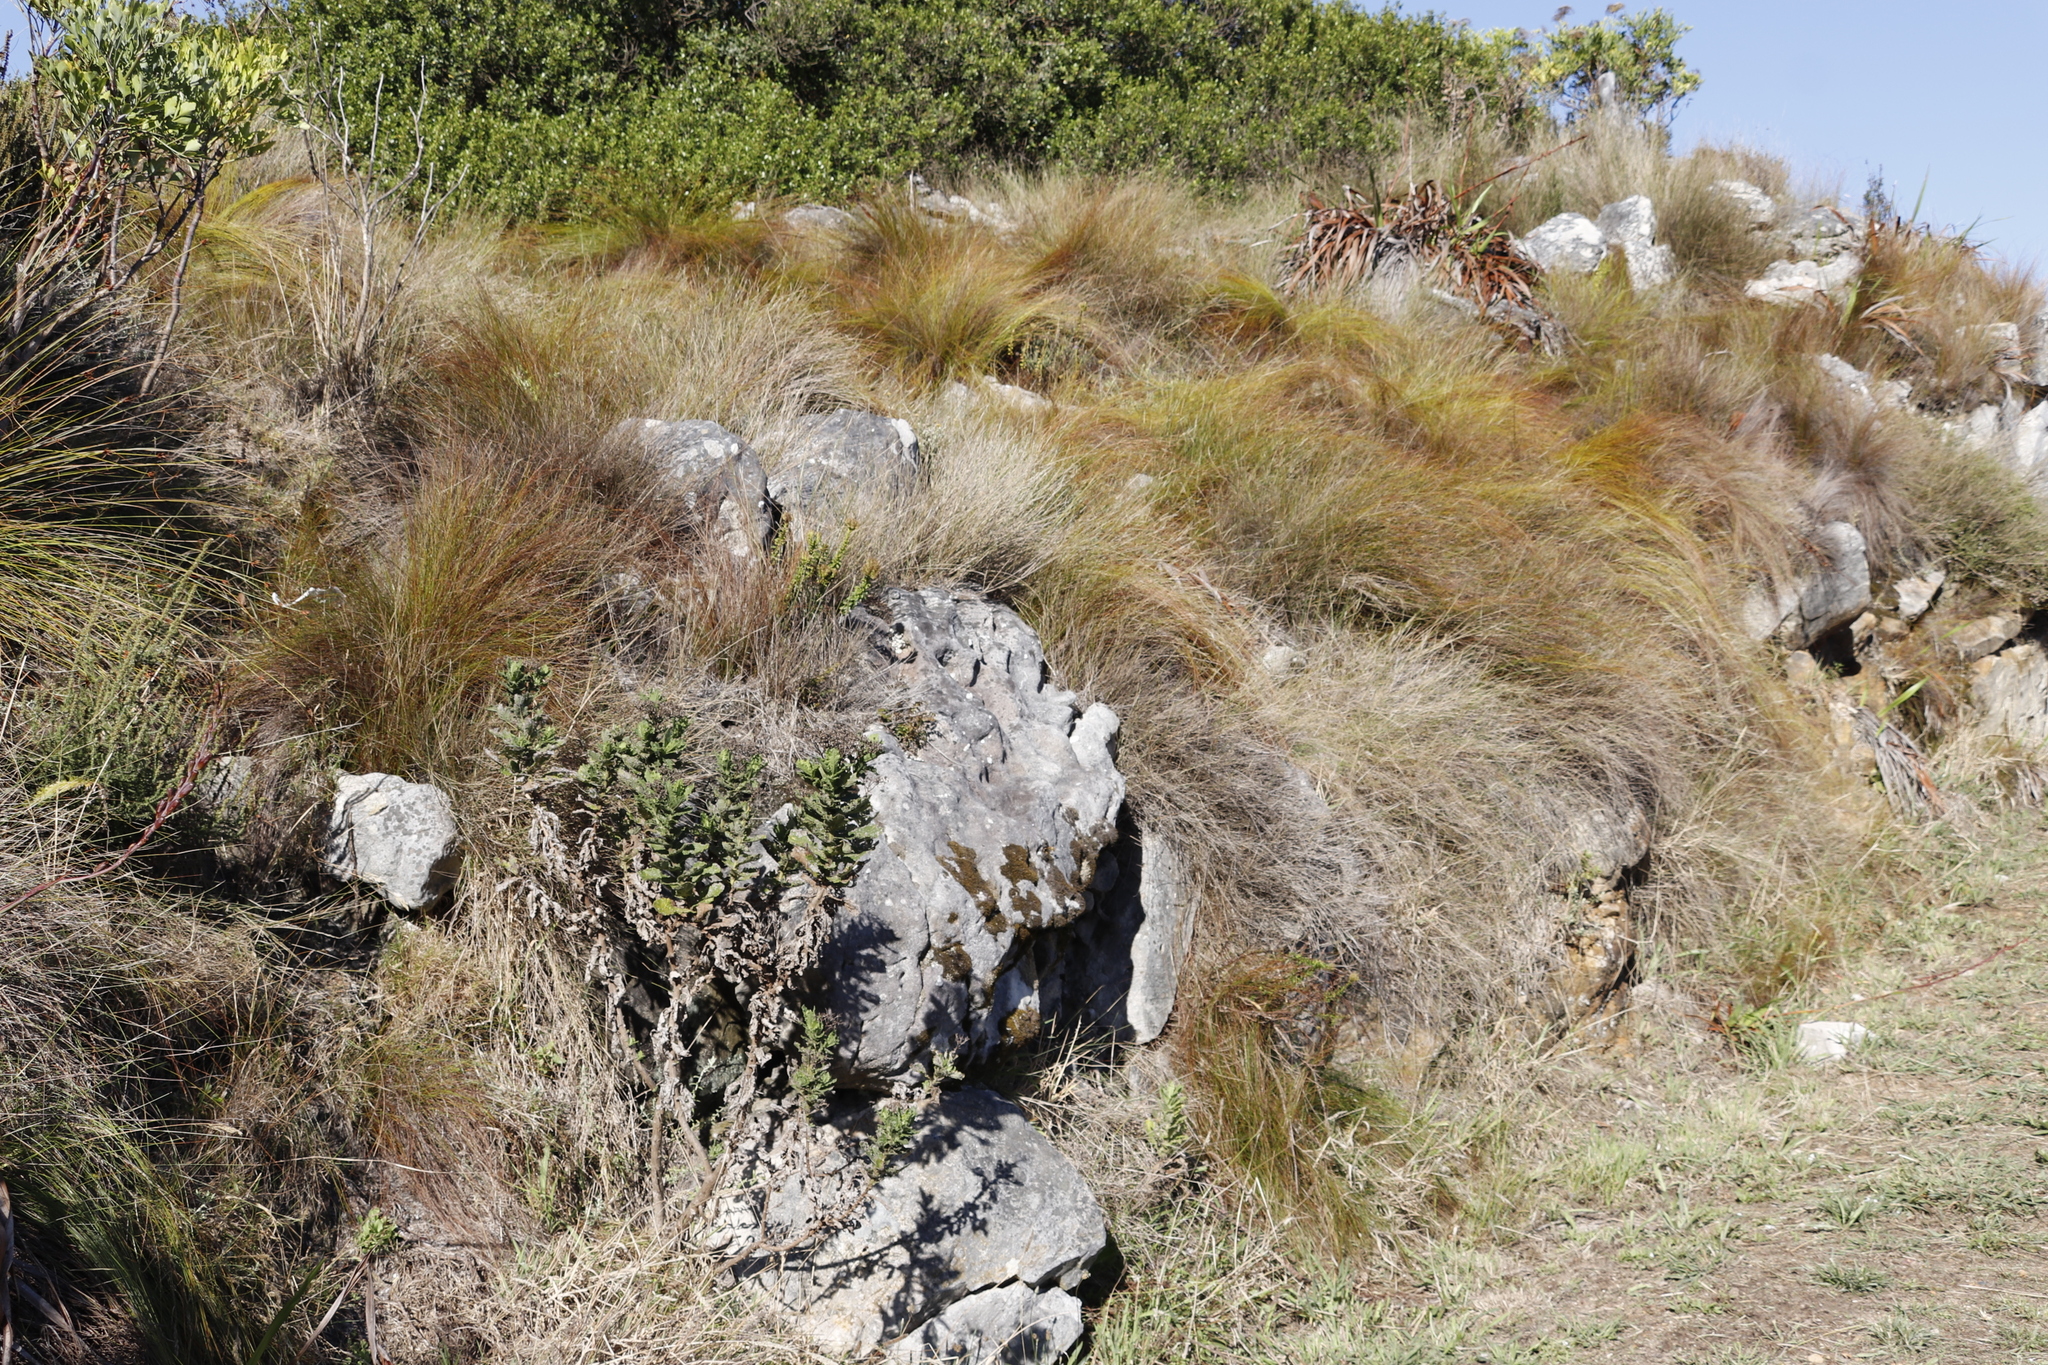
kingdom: Plantae
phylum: Tracheophyta
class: Liliopsida
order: Poales
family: Cyperaceae
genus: Ficinia
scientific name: Ficinia acuminata
